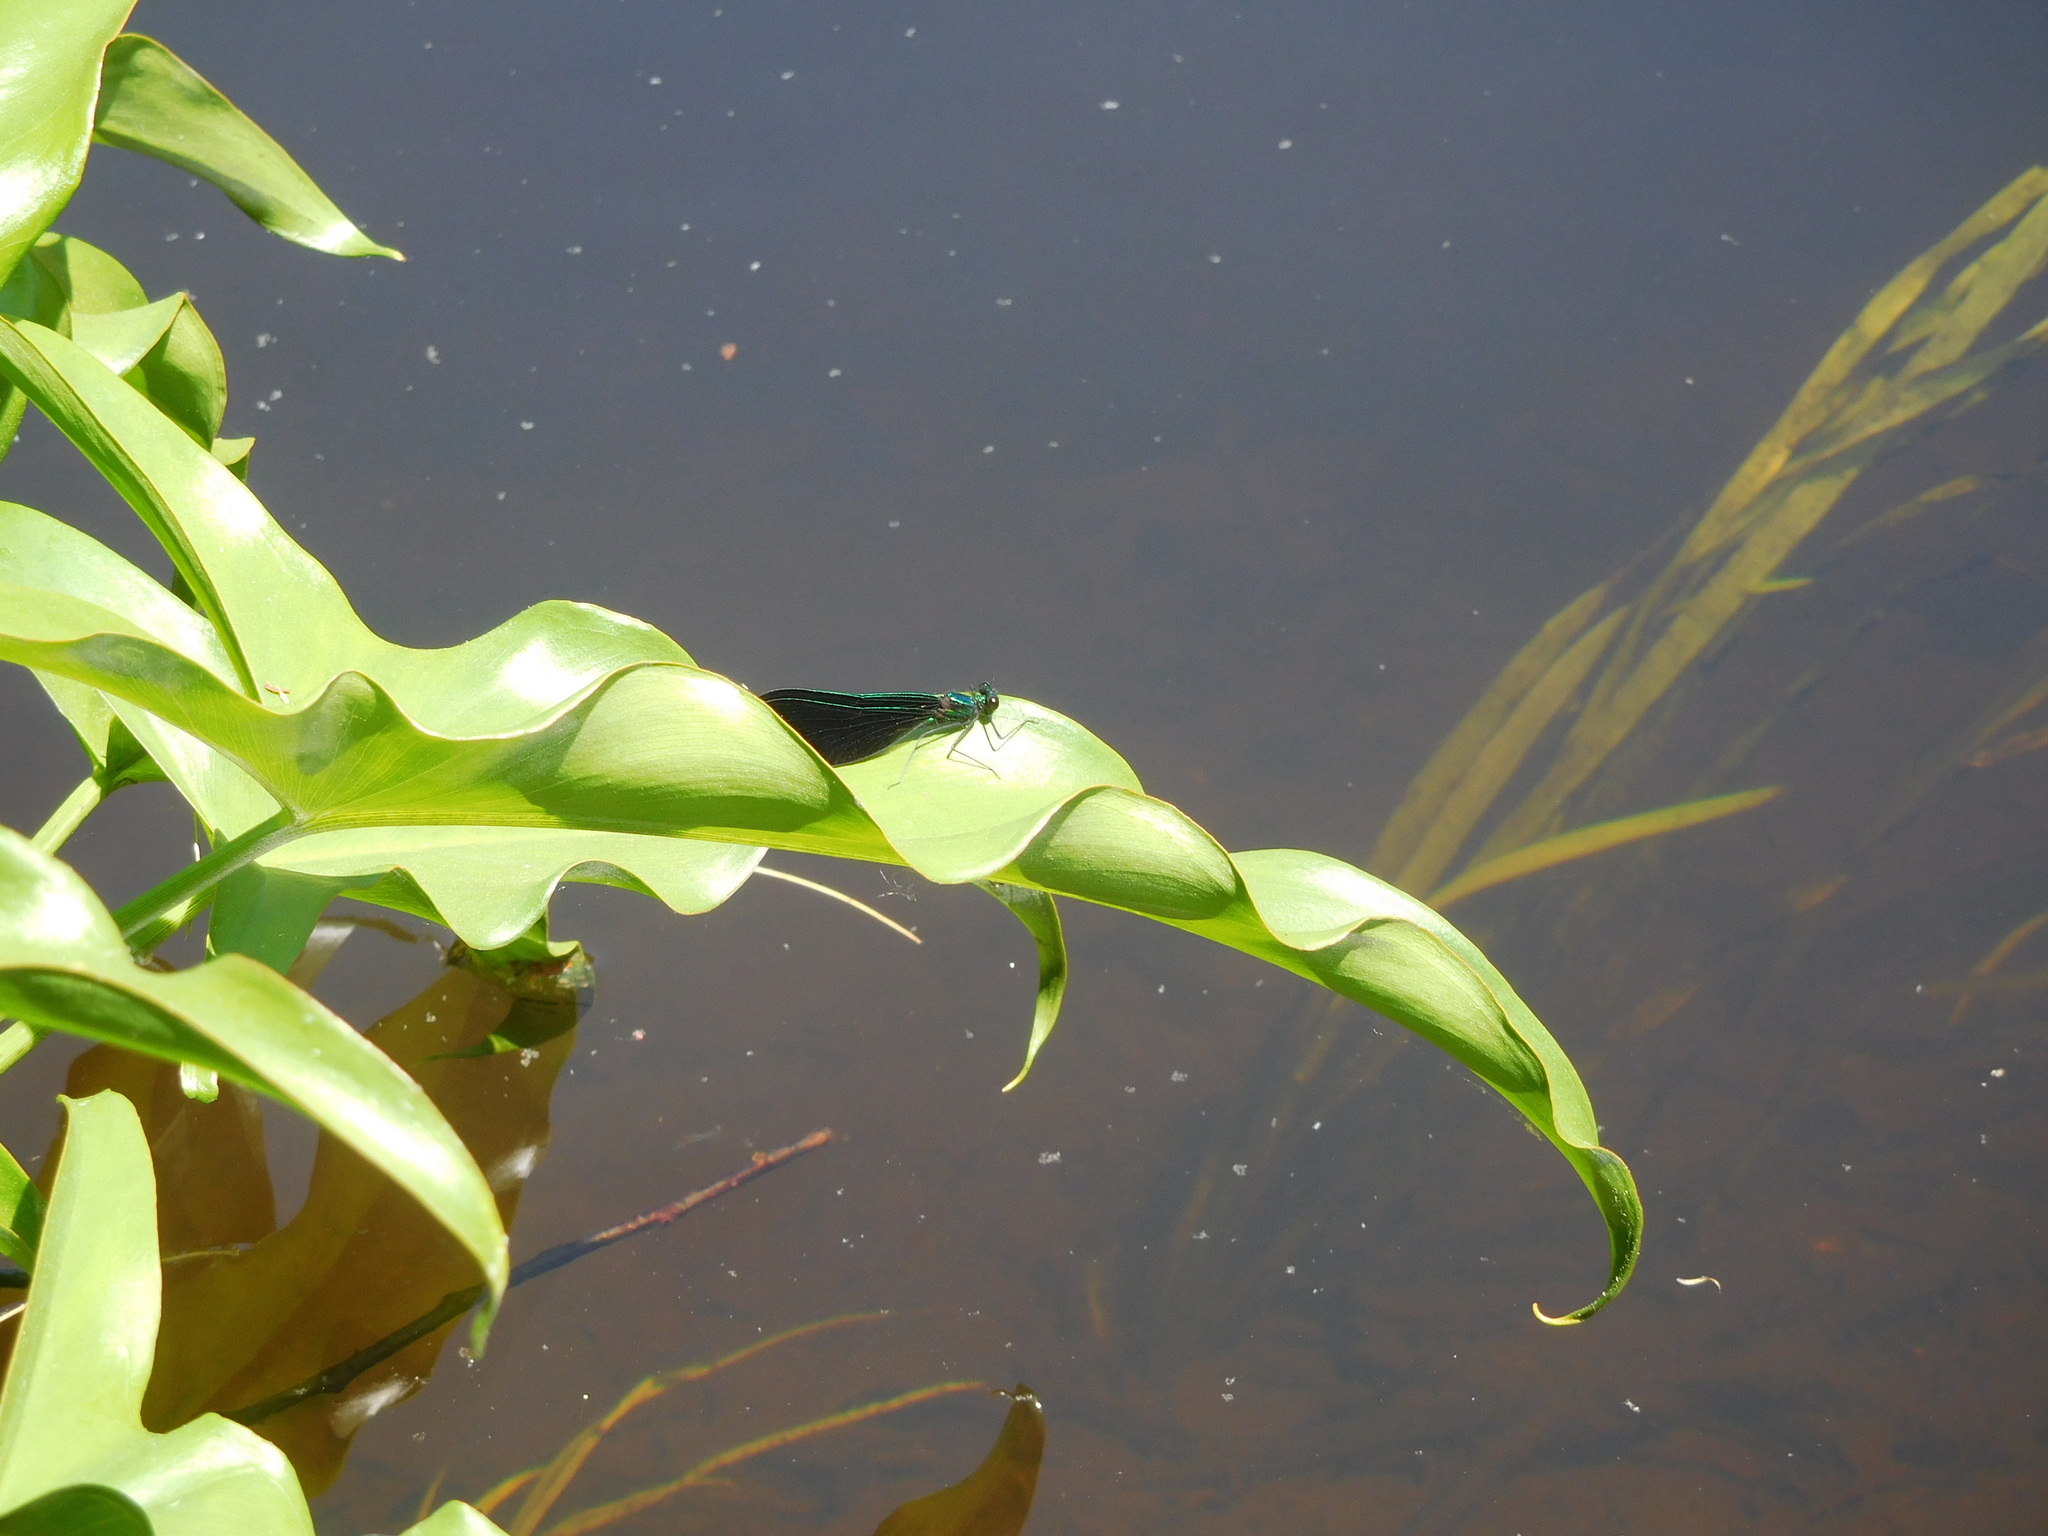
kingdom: Animalia
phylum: Arthropoda
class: Insecta
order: Odonata
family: Calopterygidae
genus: Calopteryx
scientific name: Calopteryx maculata
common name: Ebony jewelwing
